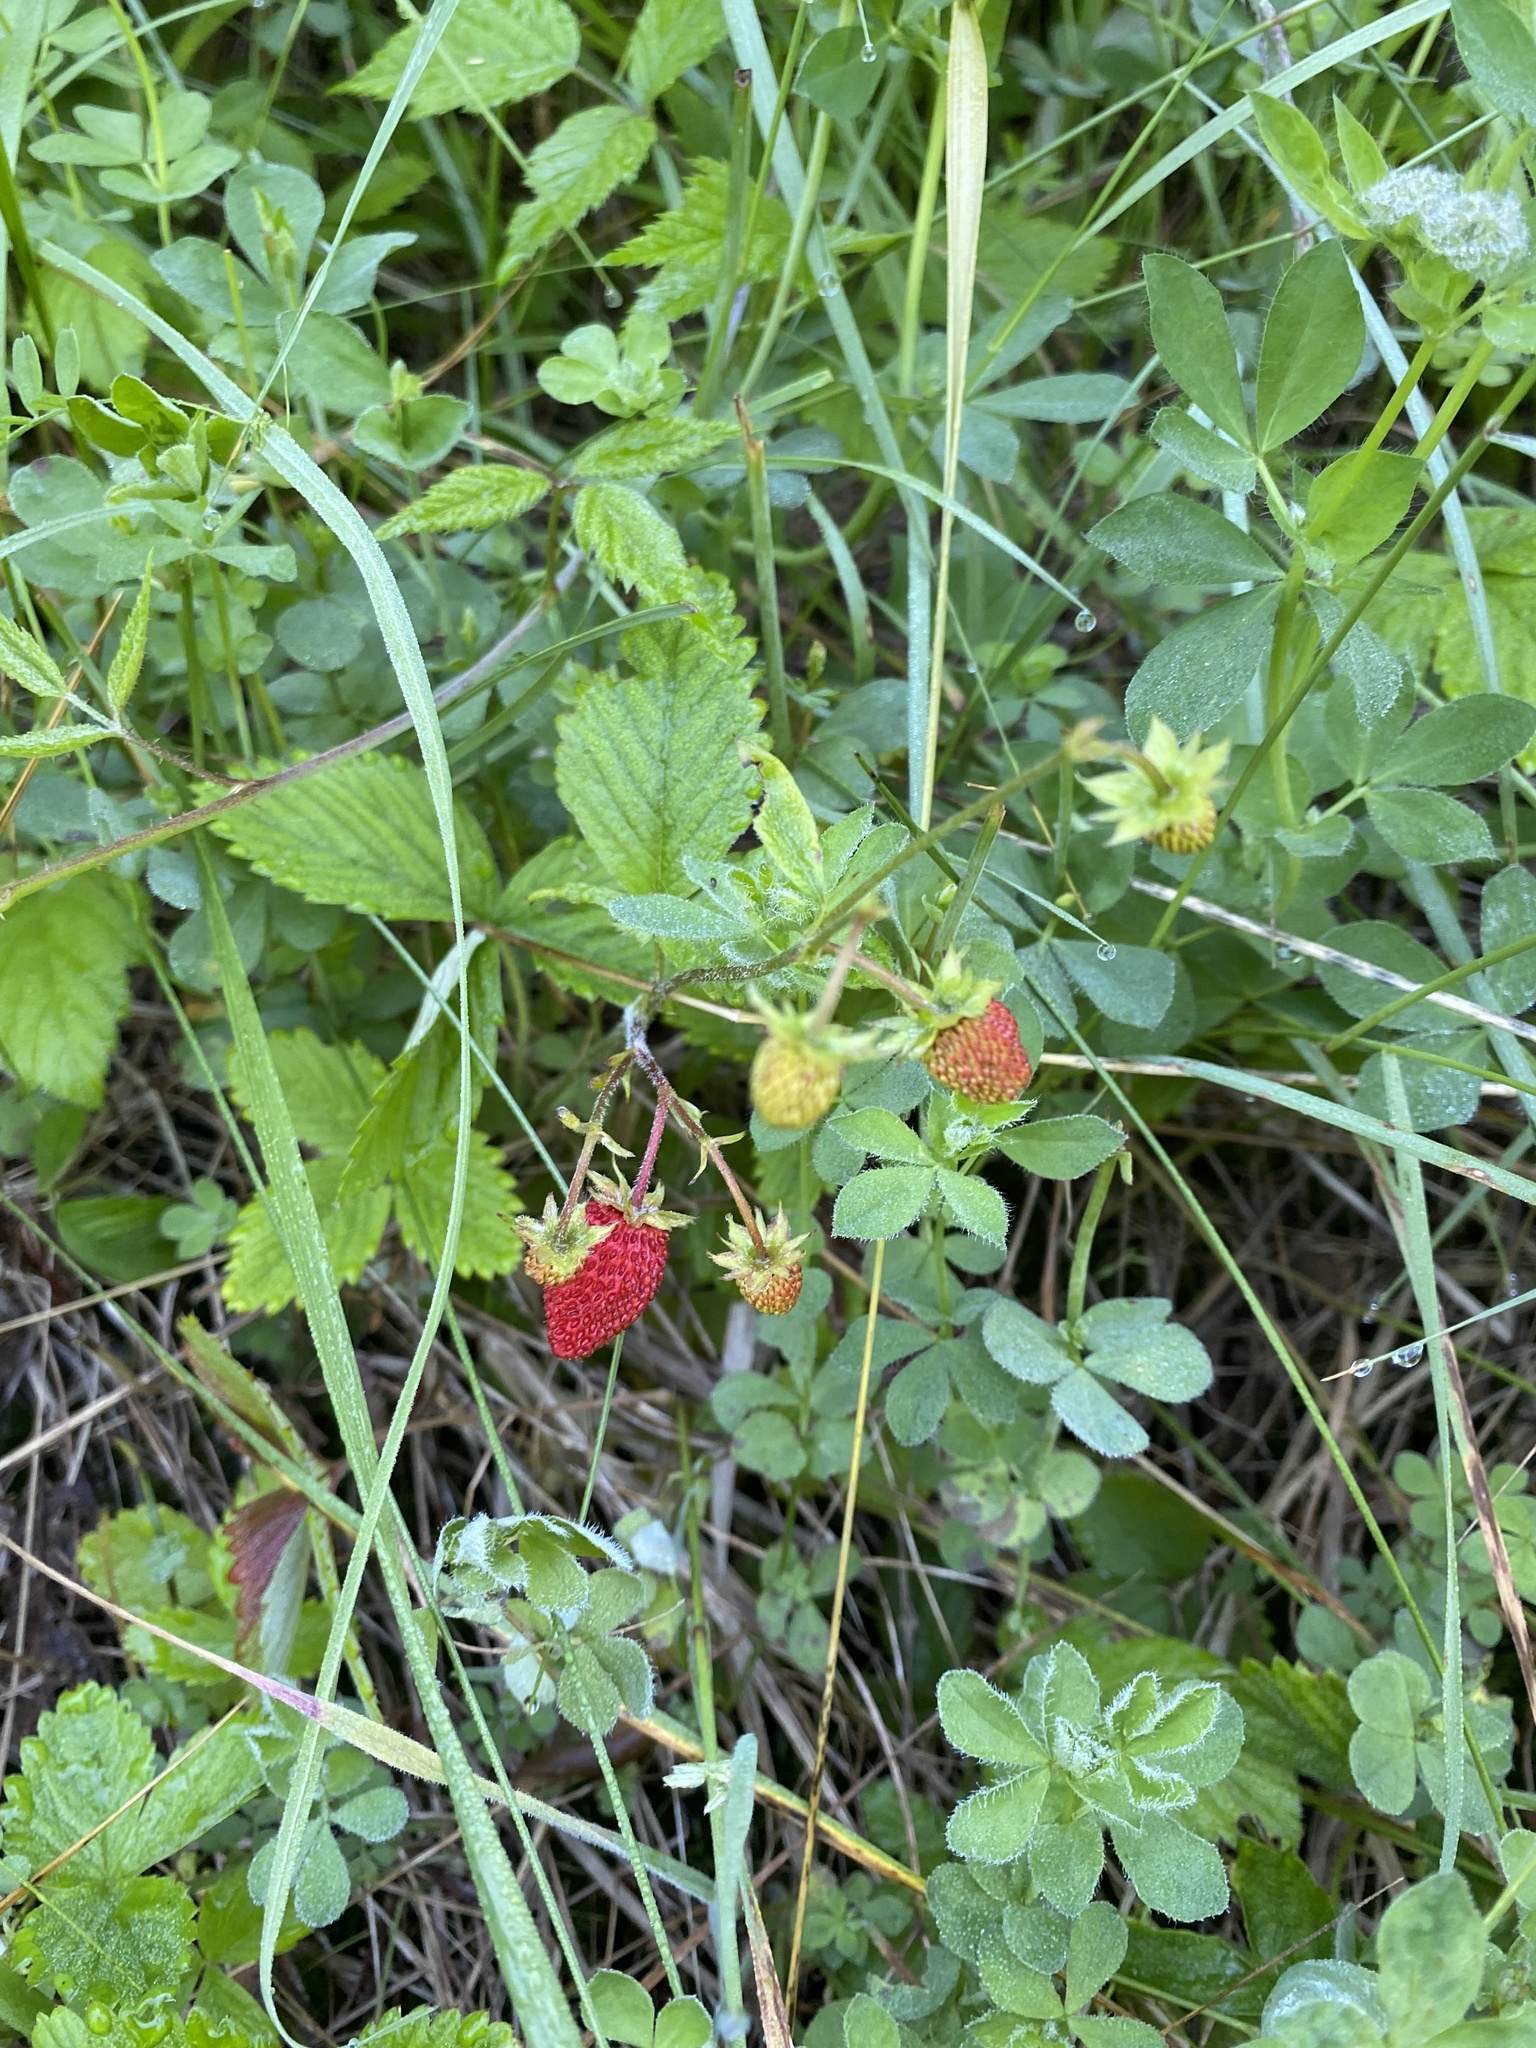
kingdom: Plantae
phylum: Tracheophyta
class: Magnoliopsida
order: Rosales
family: Rosaceae
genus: Fragaria
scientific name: Fragaria vesca
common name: Wild strawberry
